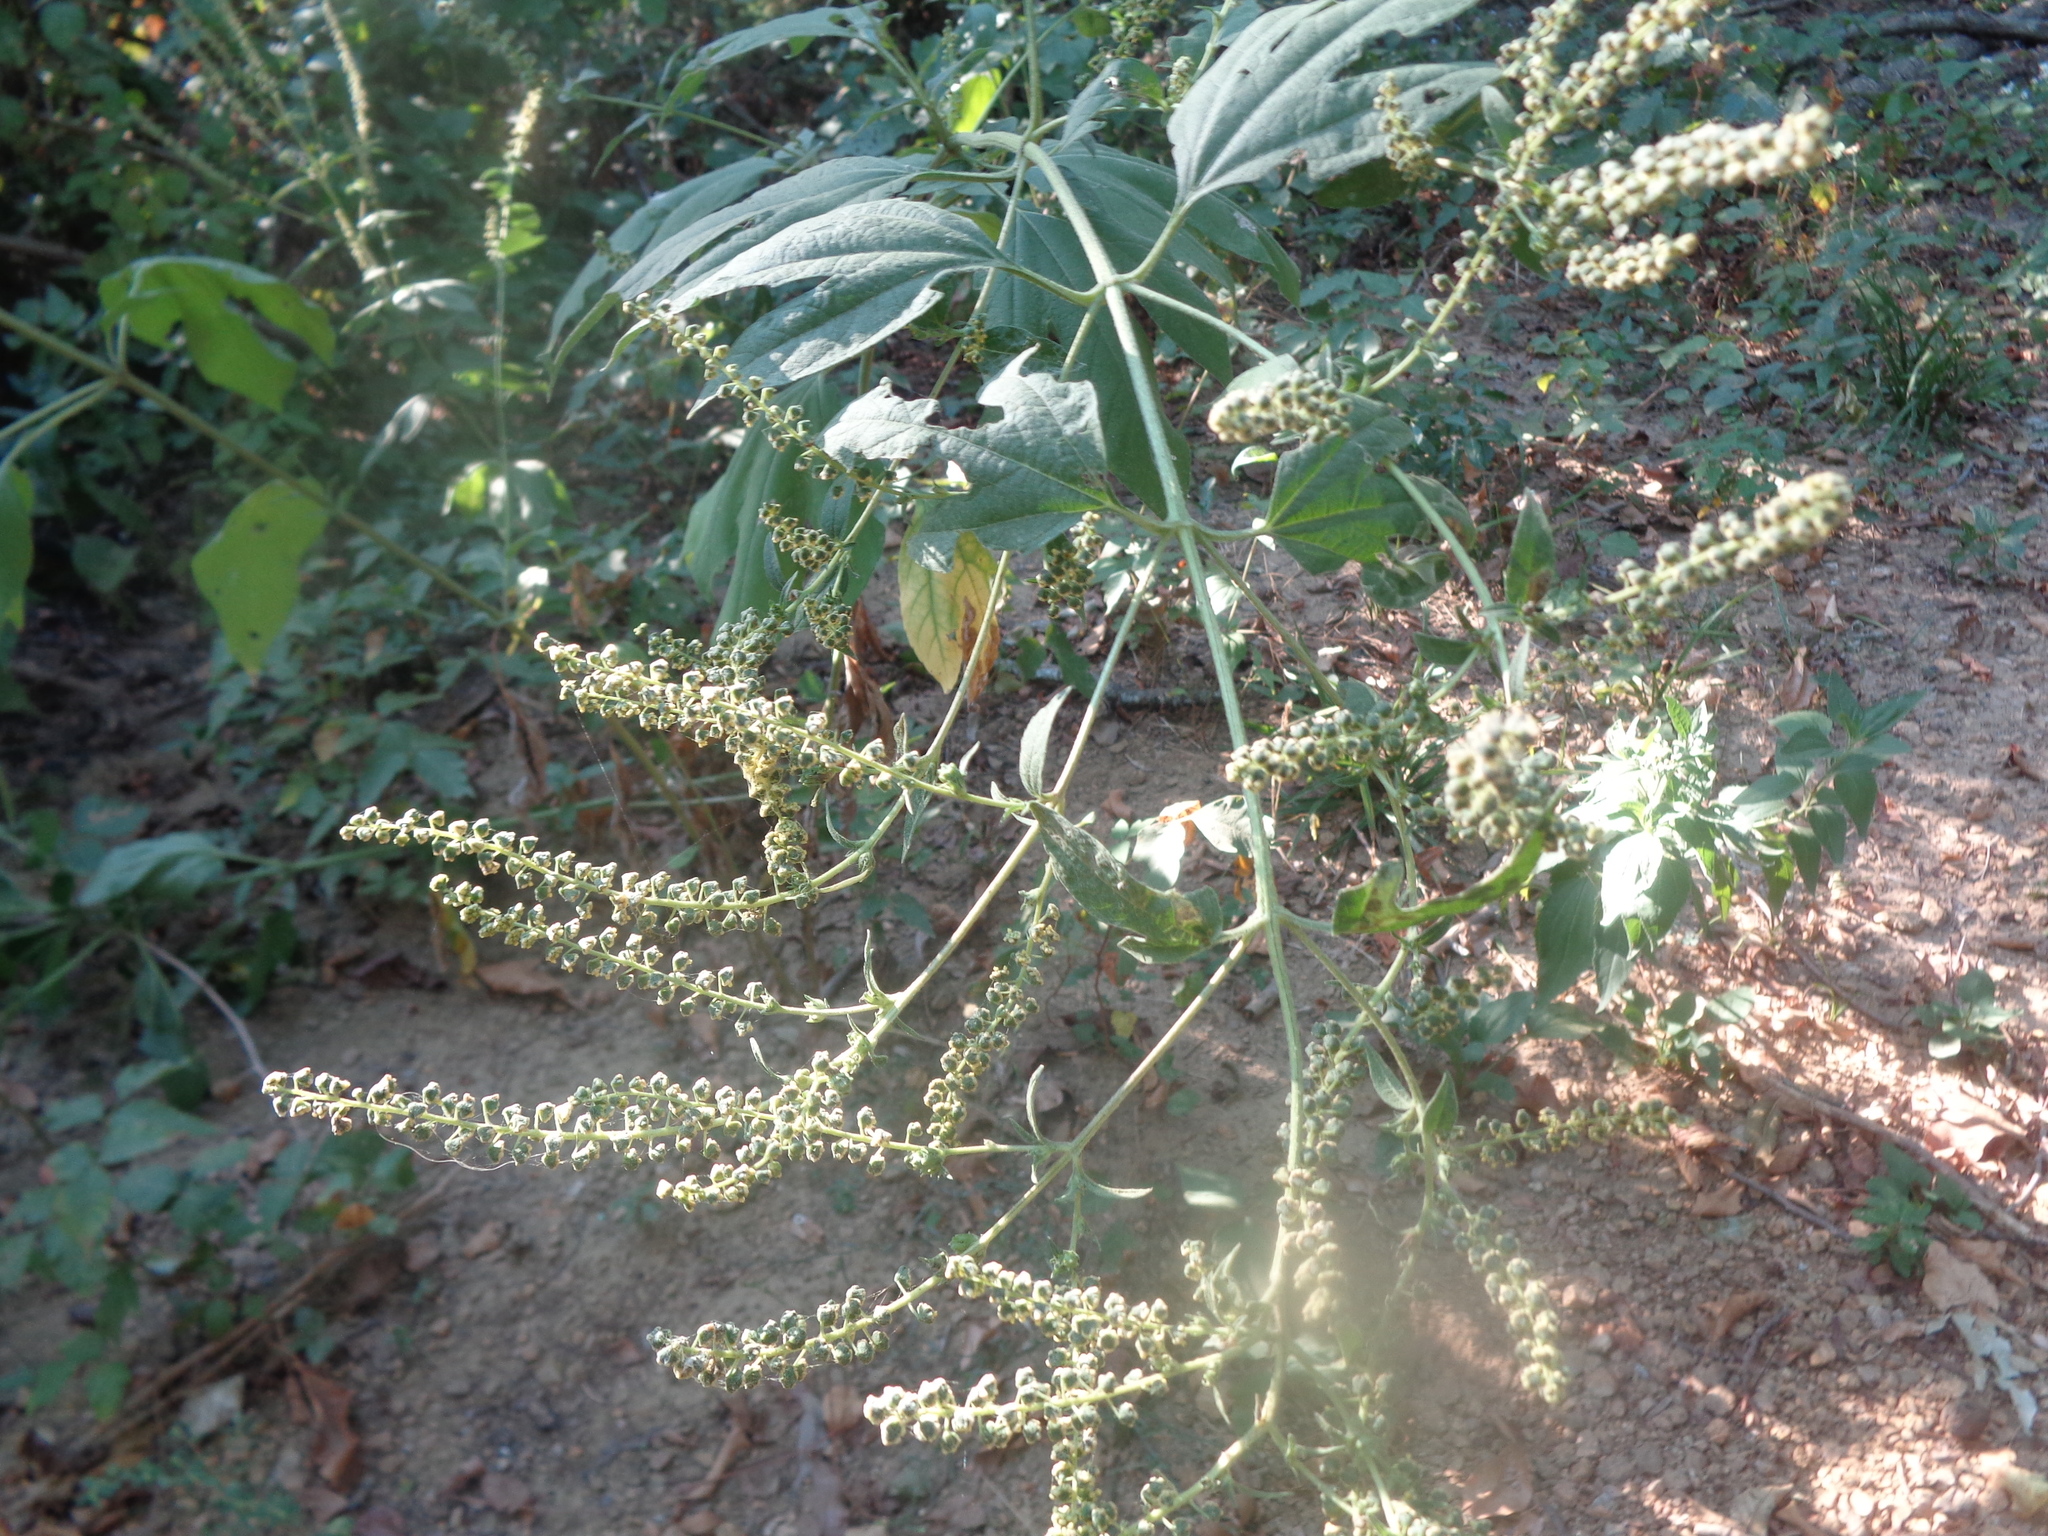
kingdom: Plantae
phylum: Tracheophyta
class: Magnoliopsida
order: Asterales
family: Asteraceae
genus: Ambrosia
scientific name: Ambrosia trifida
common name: Giant ragweed
